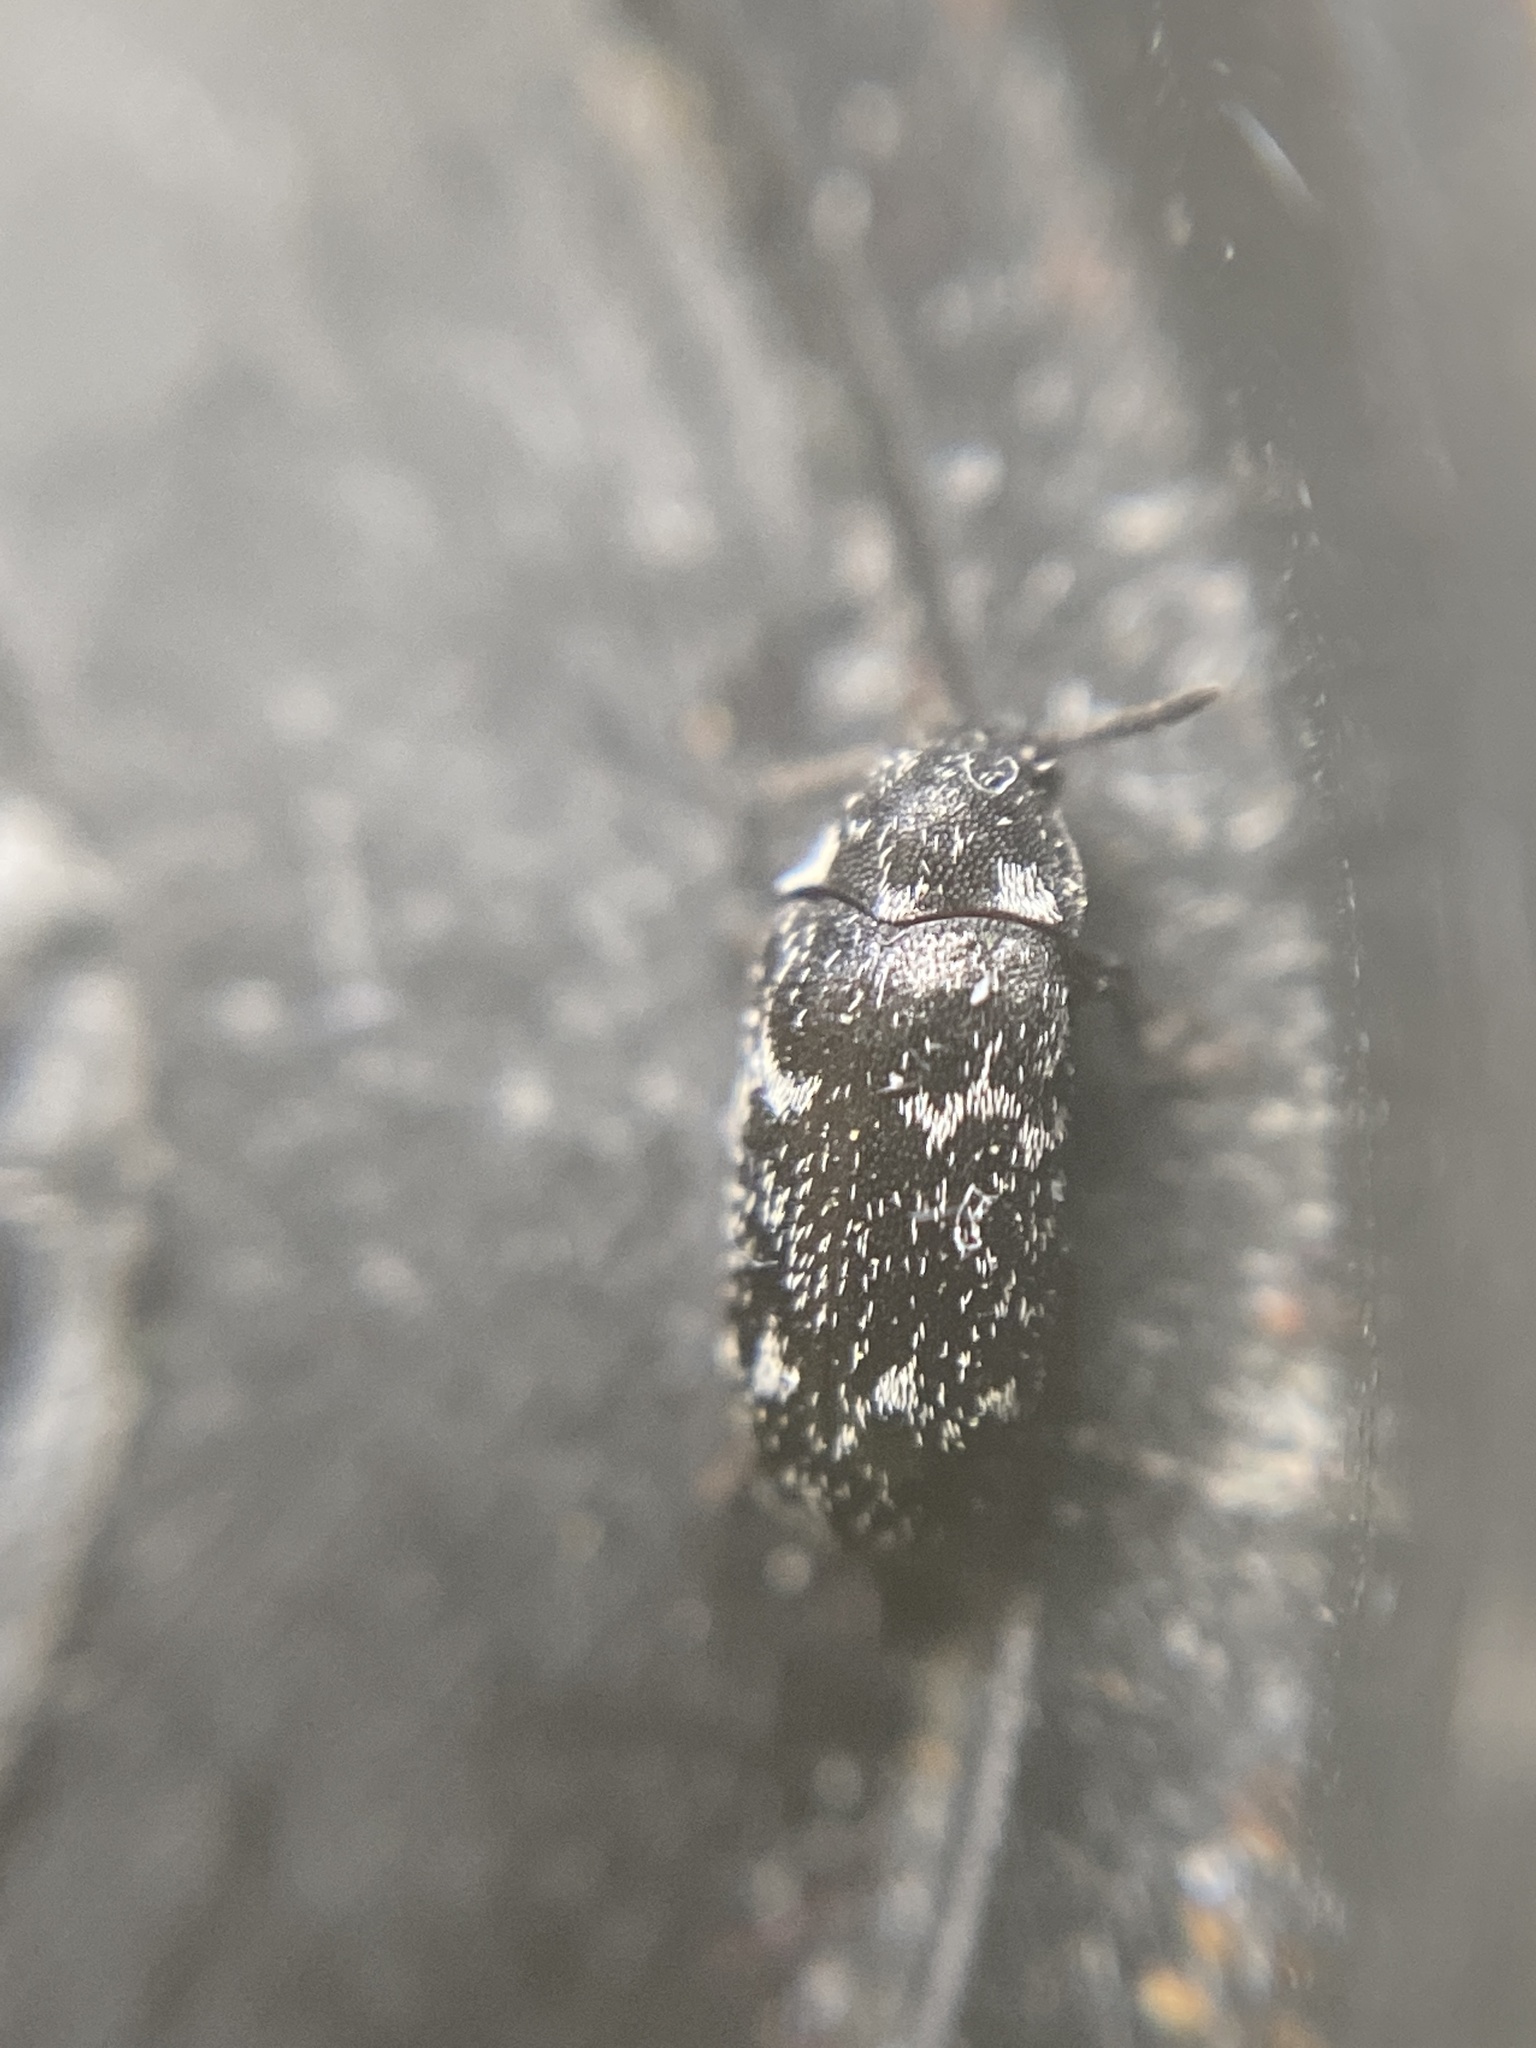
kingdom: Animalia
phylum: Arthropoda
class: Insecta
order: Coleoptera
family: Dermestidae
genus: Megatoma
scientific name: Megatoma undata
